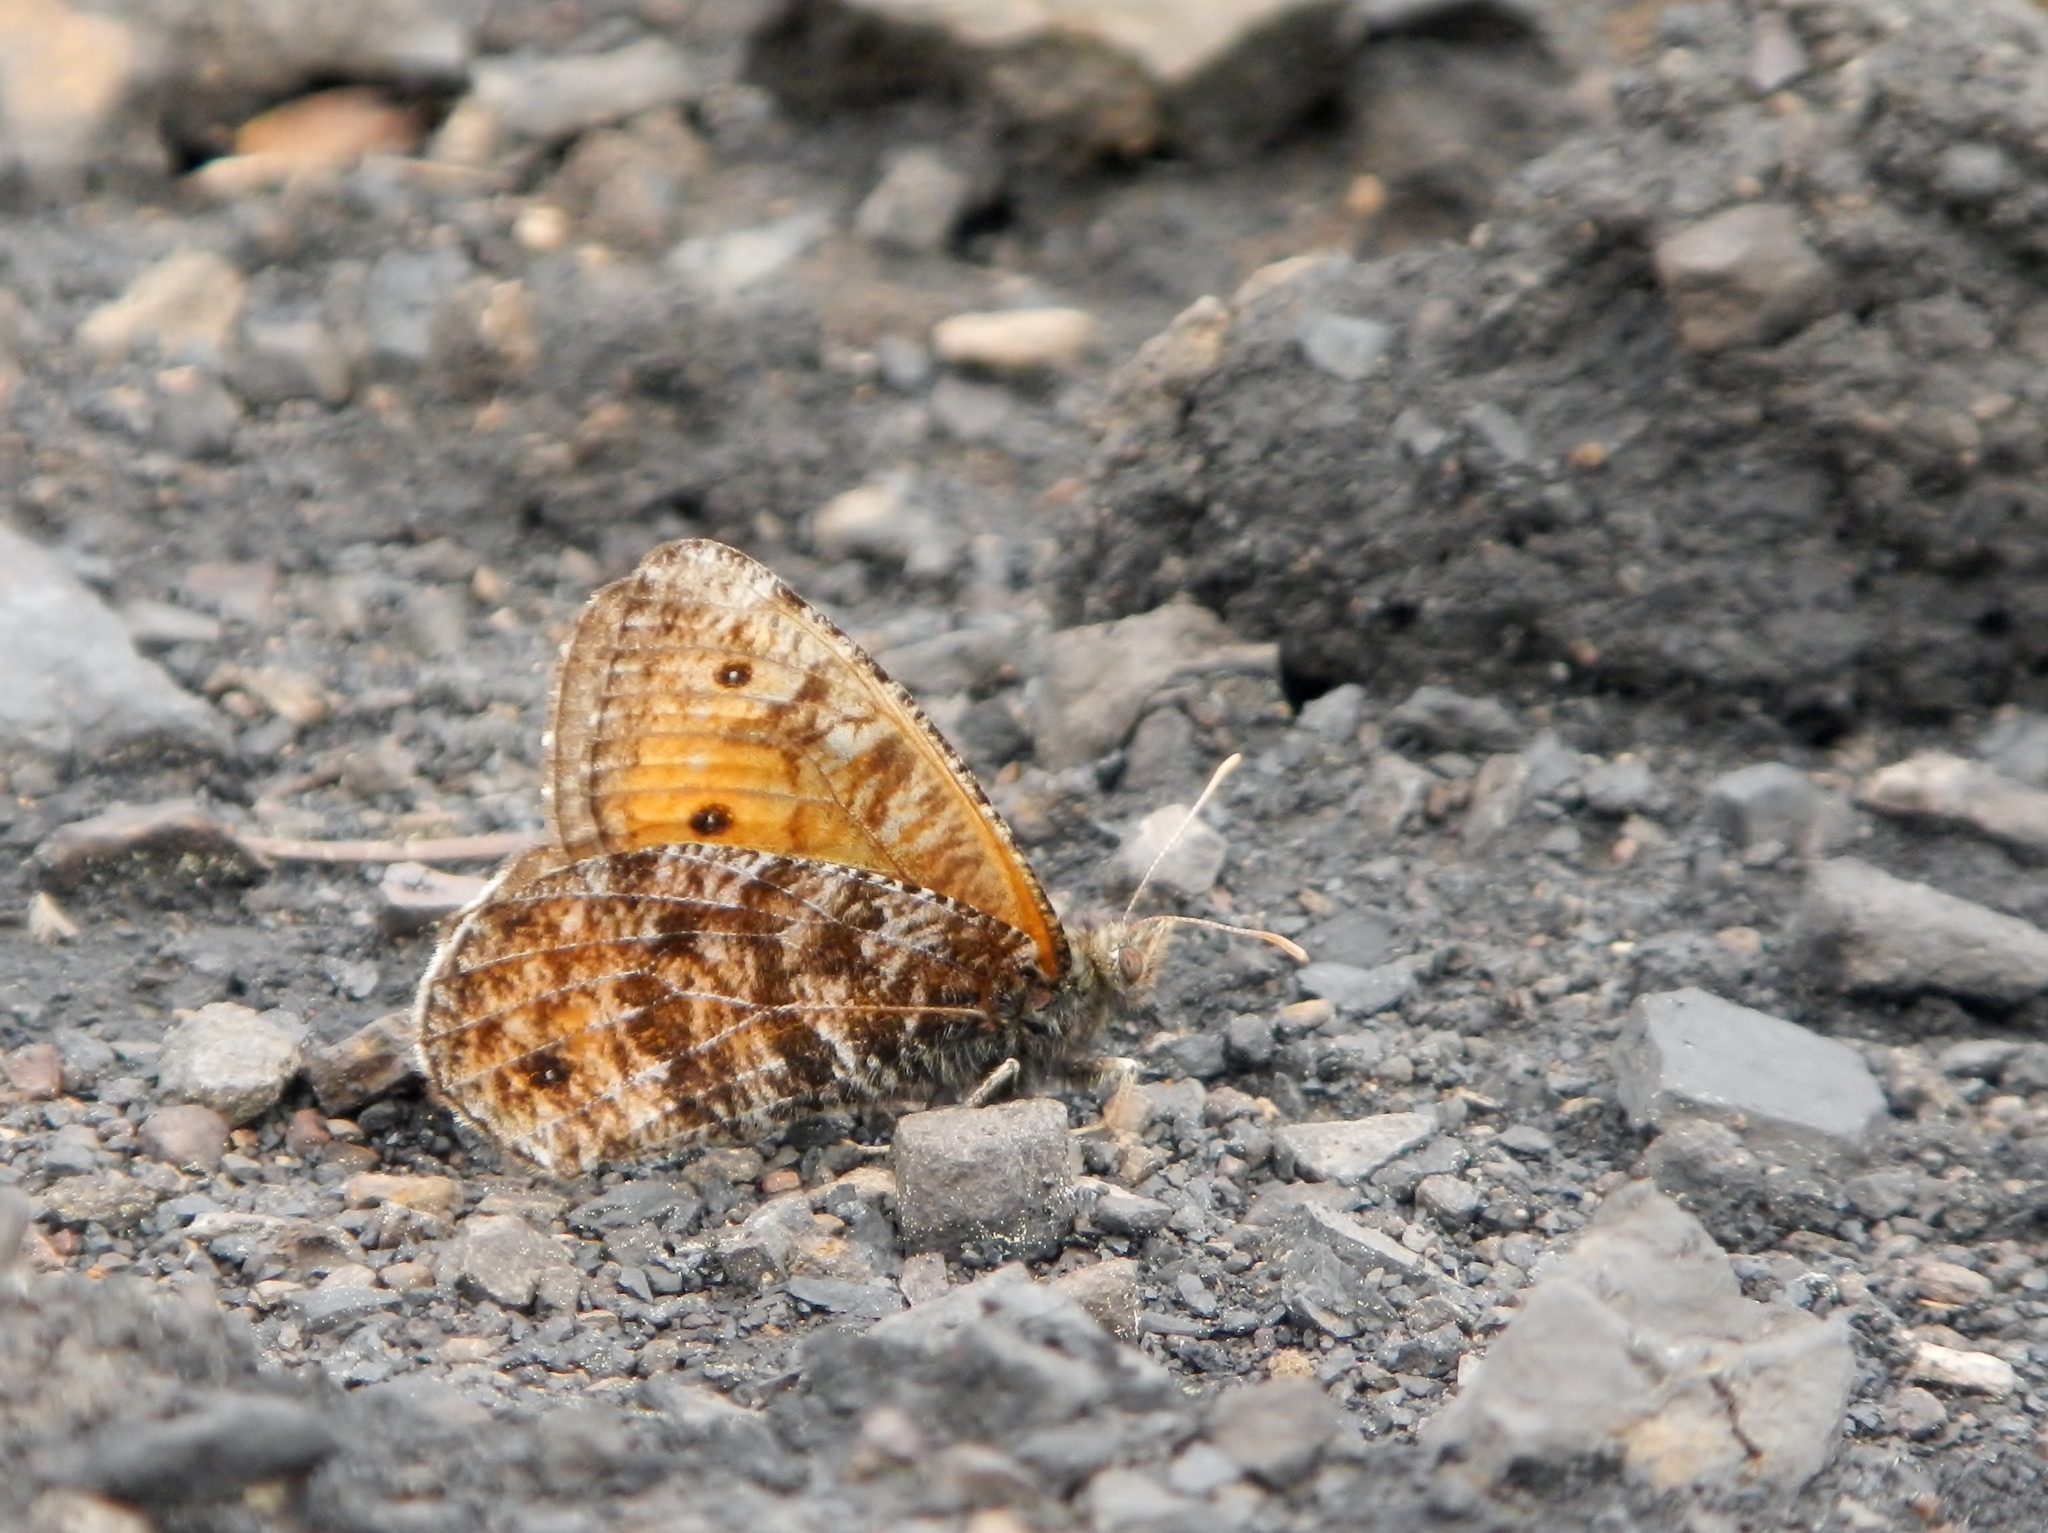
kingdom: Animalia
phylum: Arthropoda
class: Insecta
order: Lepidoptera
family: Nymphalidae
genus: Oeneis
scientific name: Oeneis chryxus
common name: Chryxus arctic
